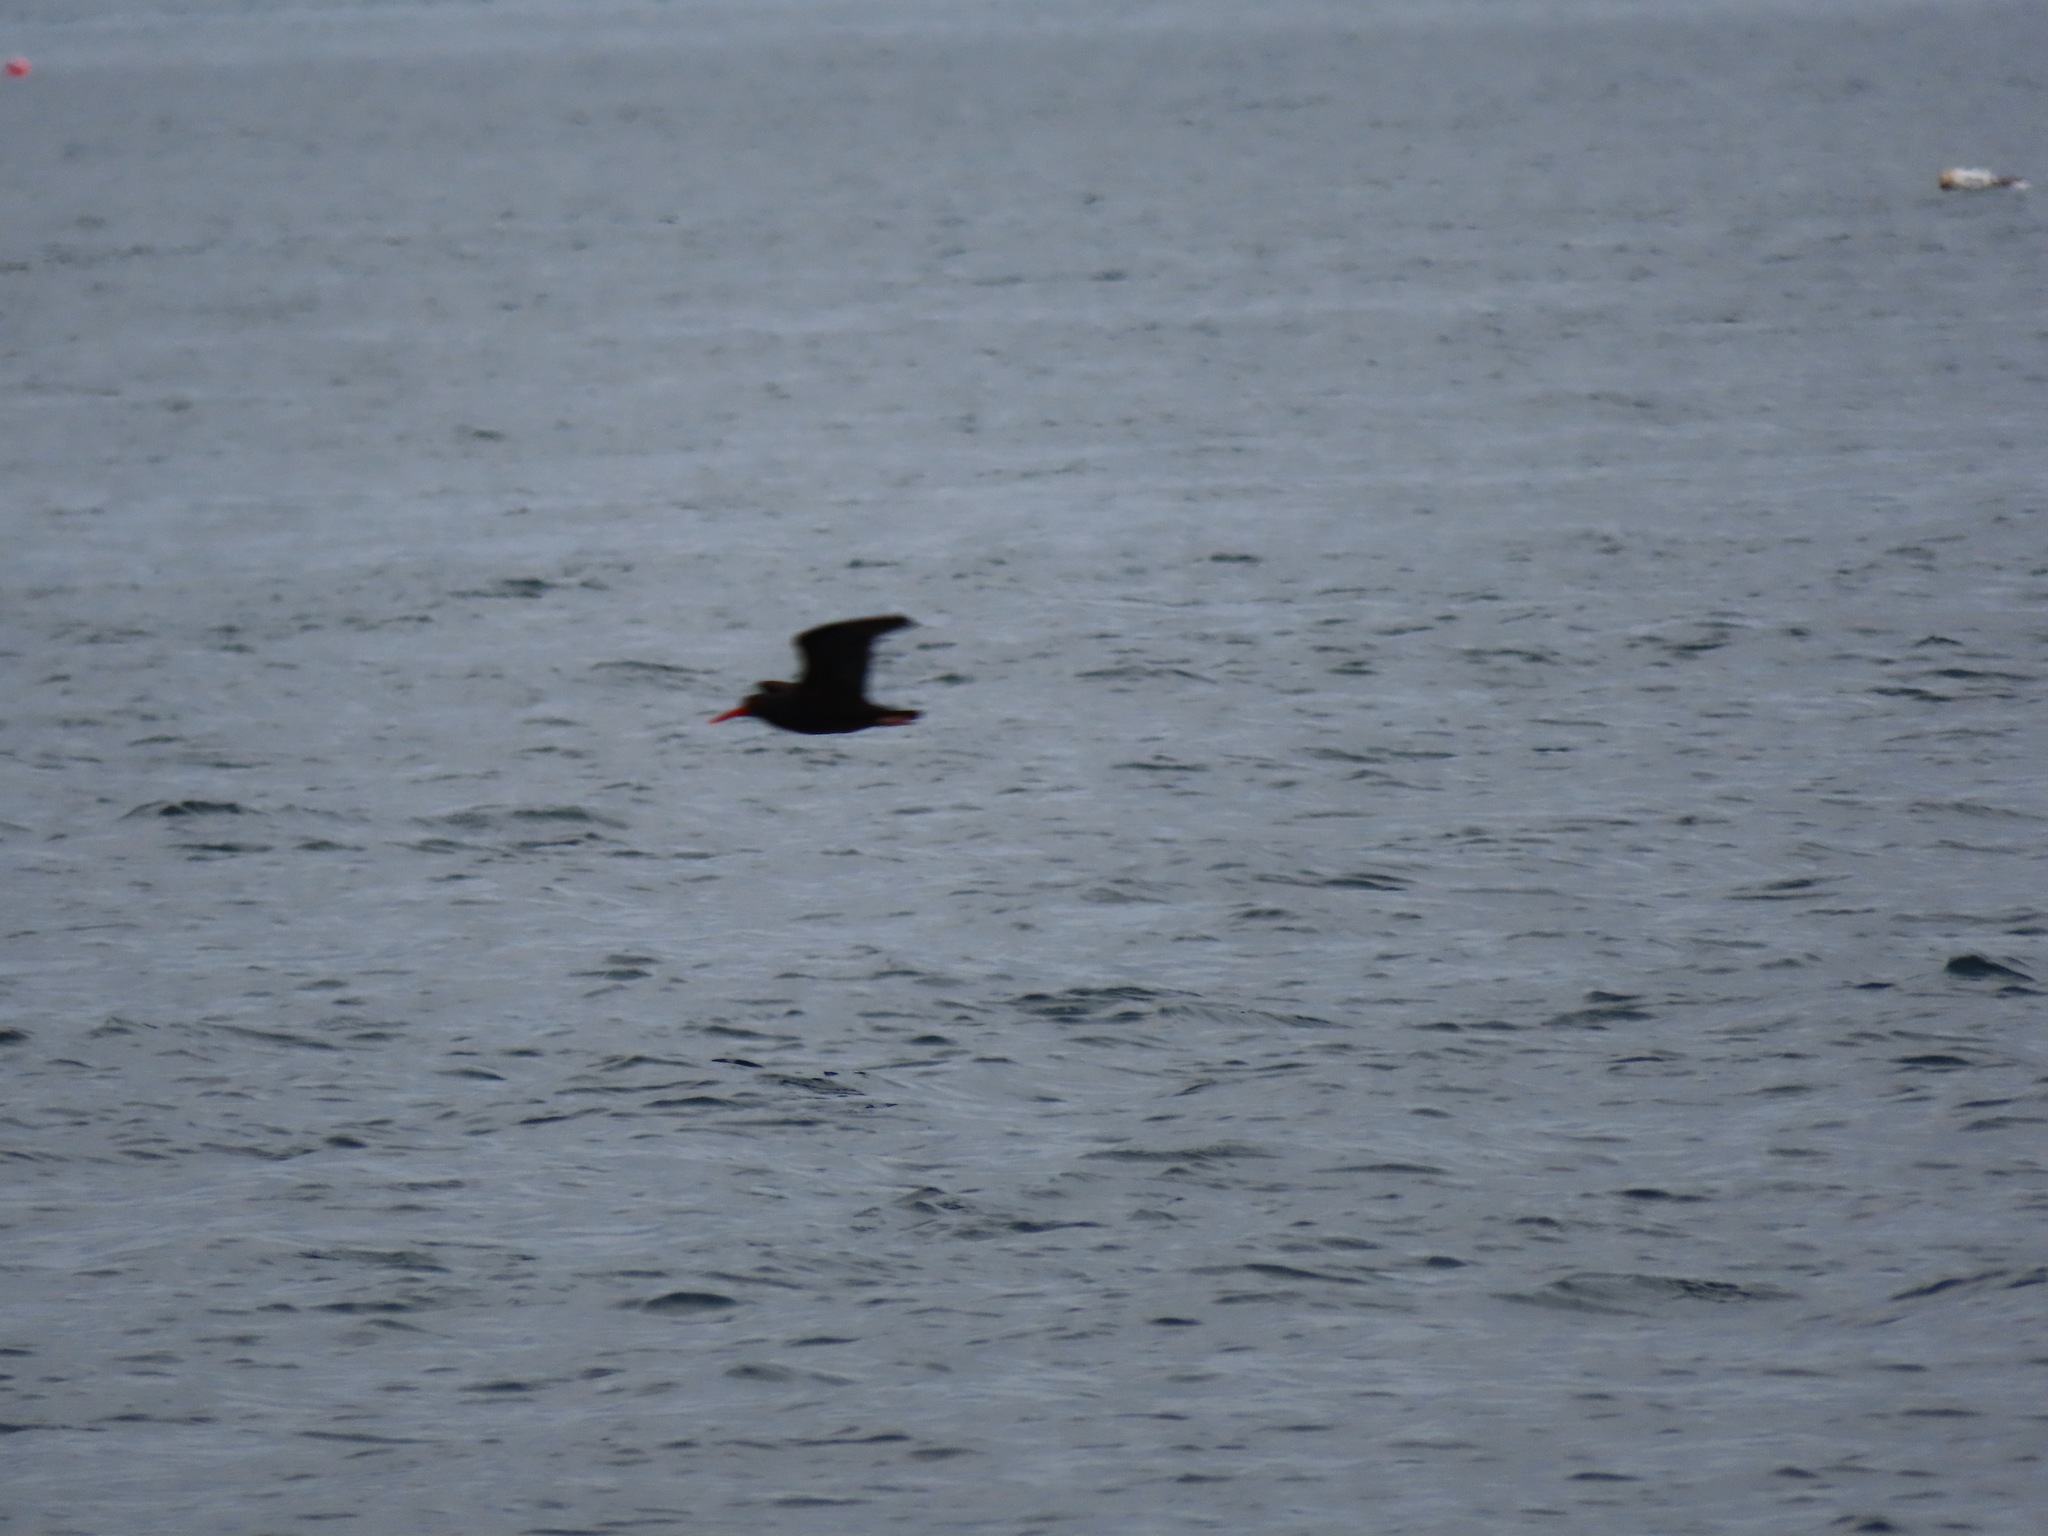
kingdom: Animalia
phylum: Chordata
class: Aves
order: Charadriiformes
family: Haematopodidae
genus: Haematopus
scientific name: Haematopus bachmani
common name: Black oystercatcher
